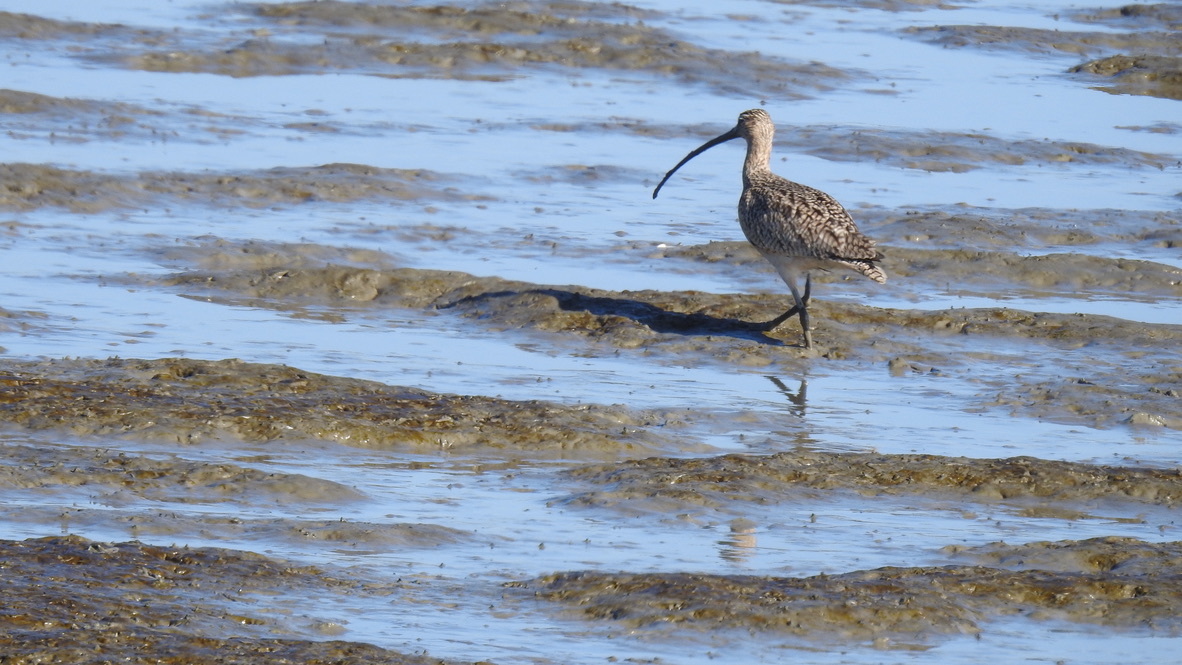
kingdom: Animalia
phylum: Chordata
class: Aves
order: Charadriiformes
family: Scolopacidae
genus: Numenius
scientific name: Numenius americanus
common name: Long-billed curlew
